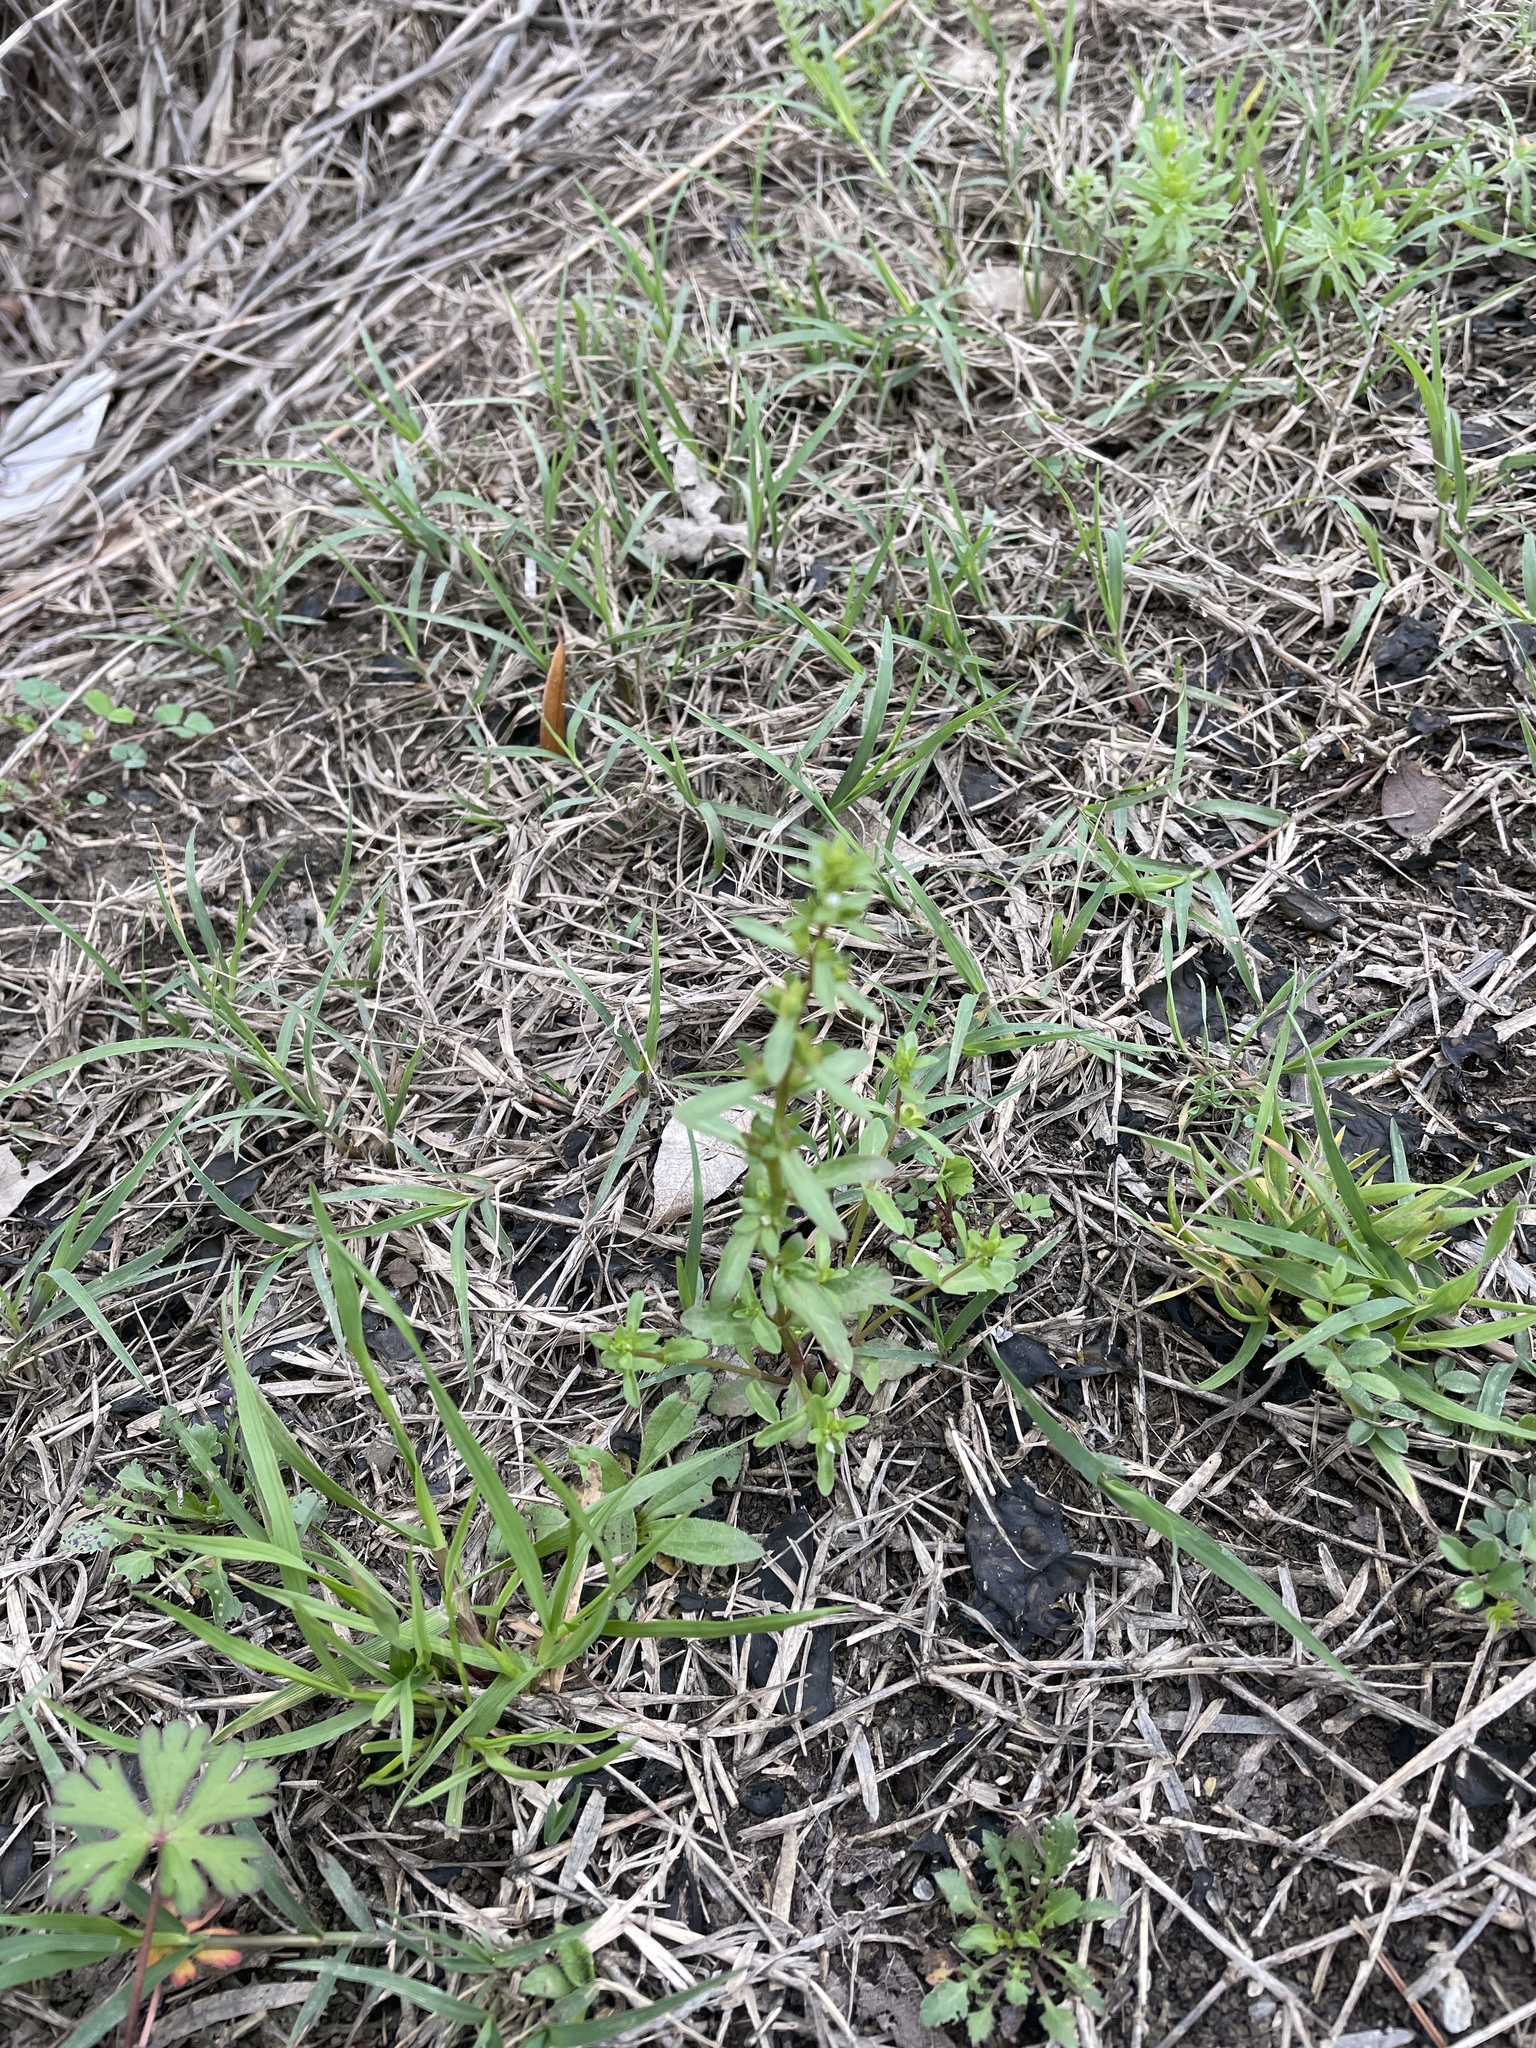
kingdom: Plantae
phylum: Tracheophyta
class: Magnoliopsida
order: Lamiales
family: Plantaginaceae
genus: Veronica
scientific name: Veronica peregrina
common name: Neckweed
